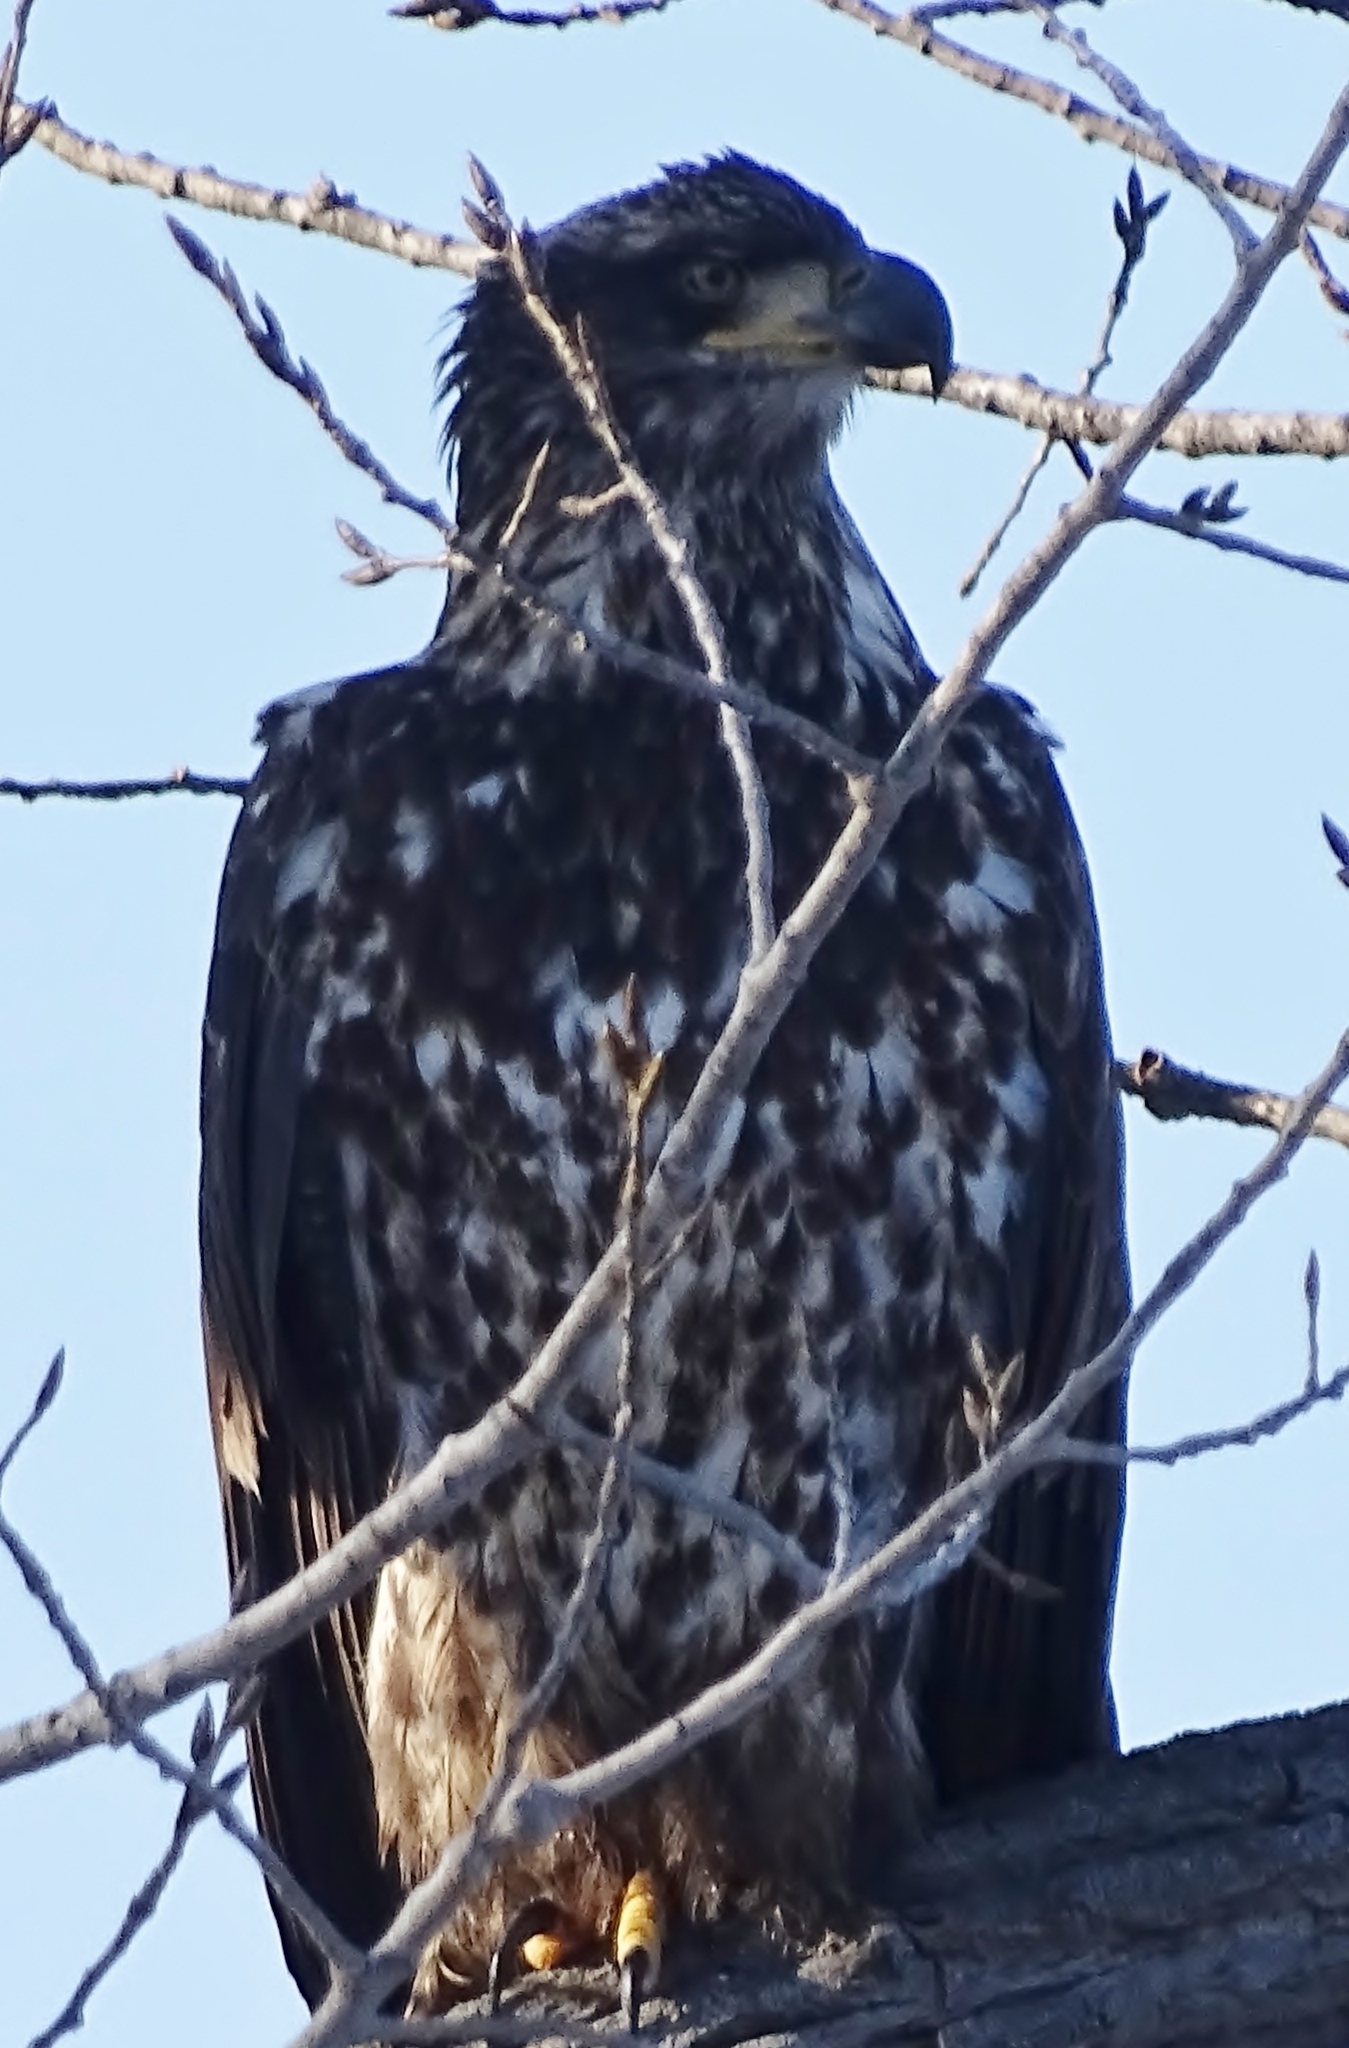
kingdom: Animalia
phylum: Chordata
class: Aves
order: Accipitriformes
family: Accipitridae
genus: Haliaeetus
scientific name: Haliaeetus leucocephalus
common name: Bald eagle
